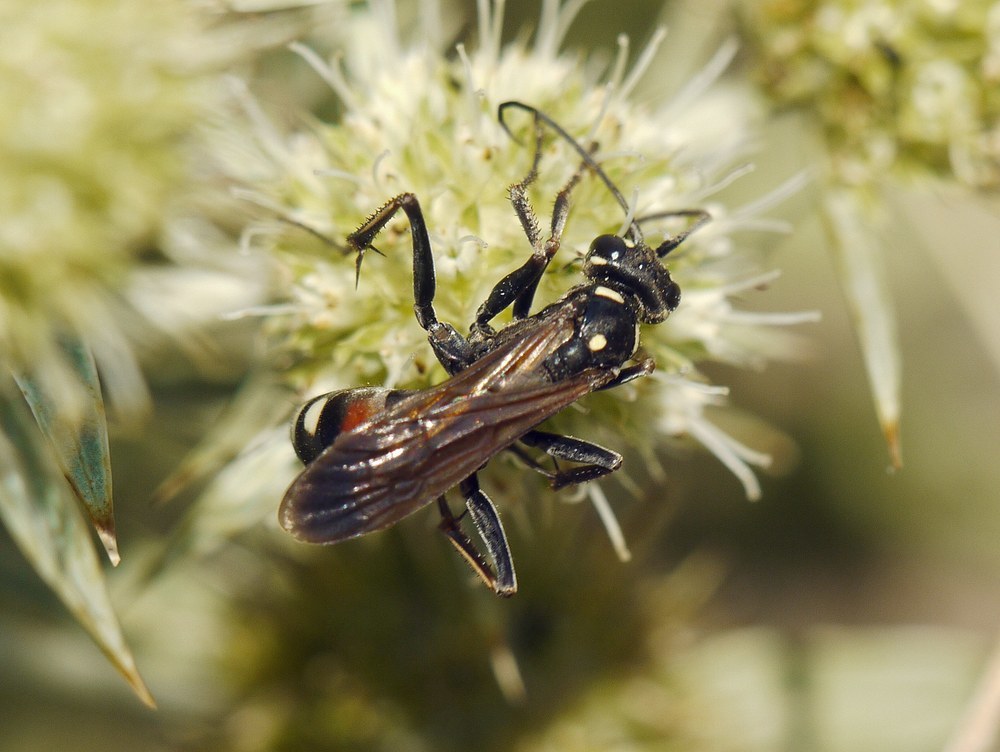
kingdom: Animalia
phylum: Arthropoda
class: Insecta
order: Hymenoptera
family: Pompilidae
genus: Cryptocheilus
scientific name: Cryptocheilus egregius
